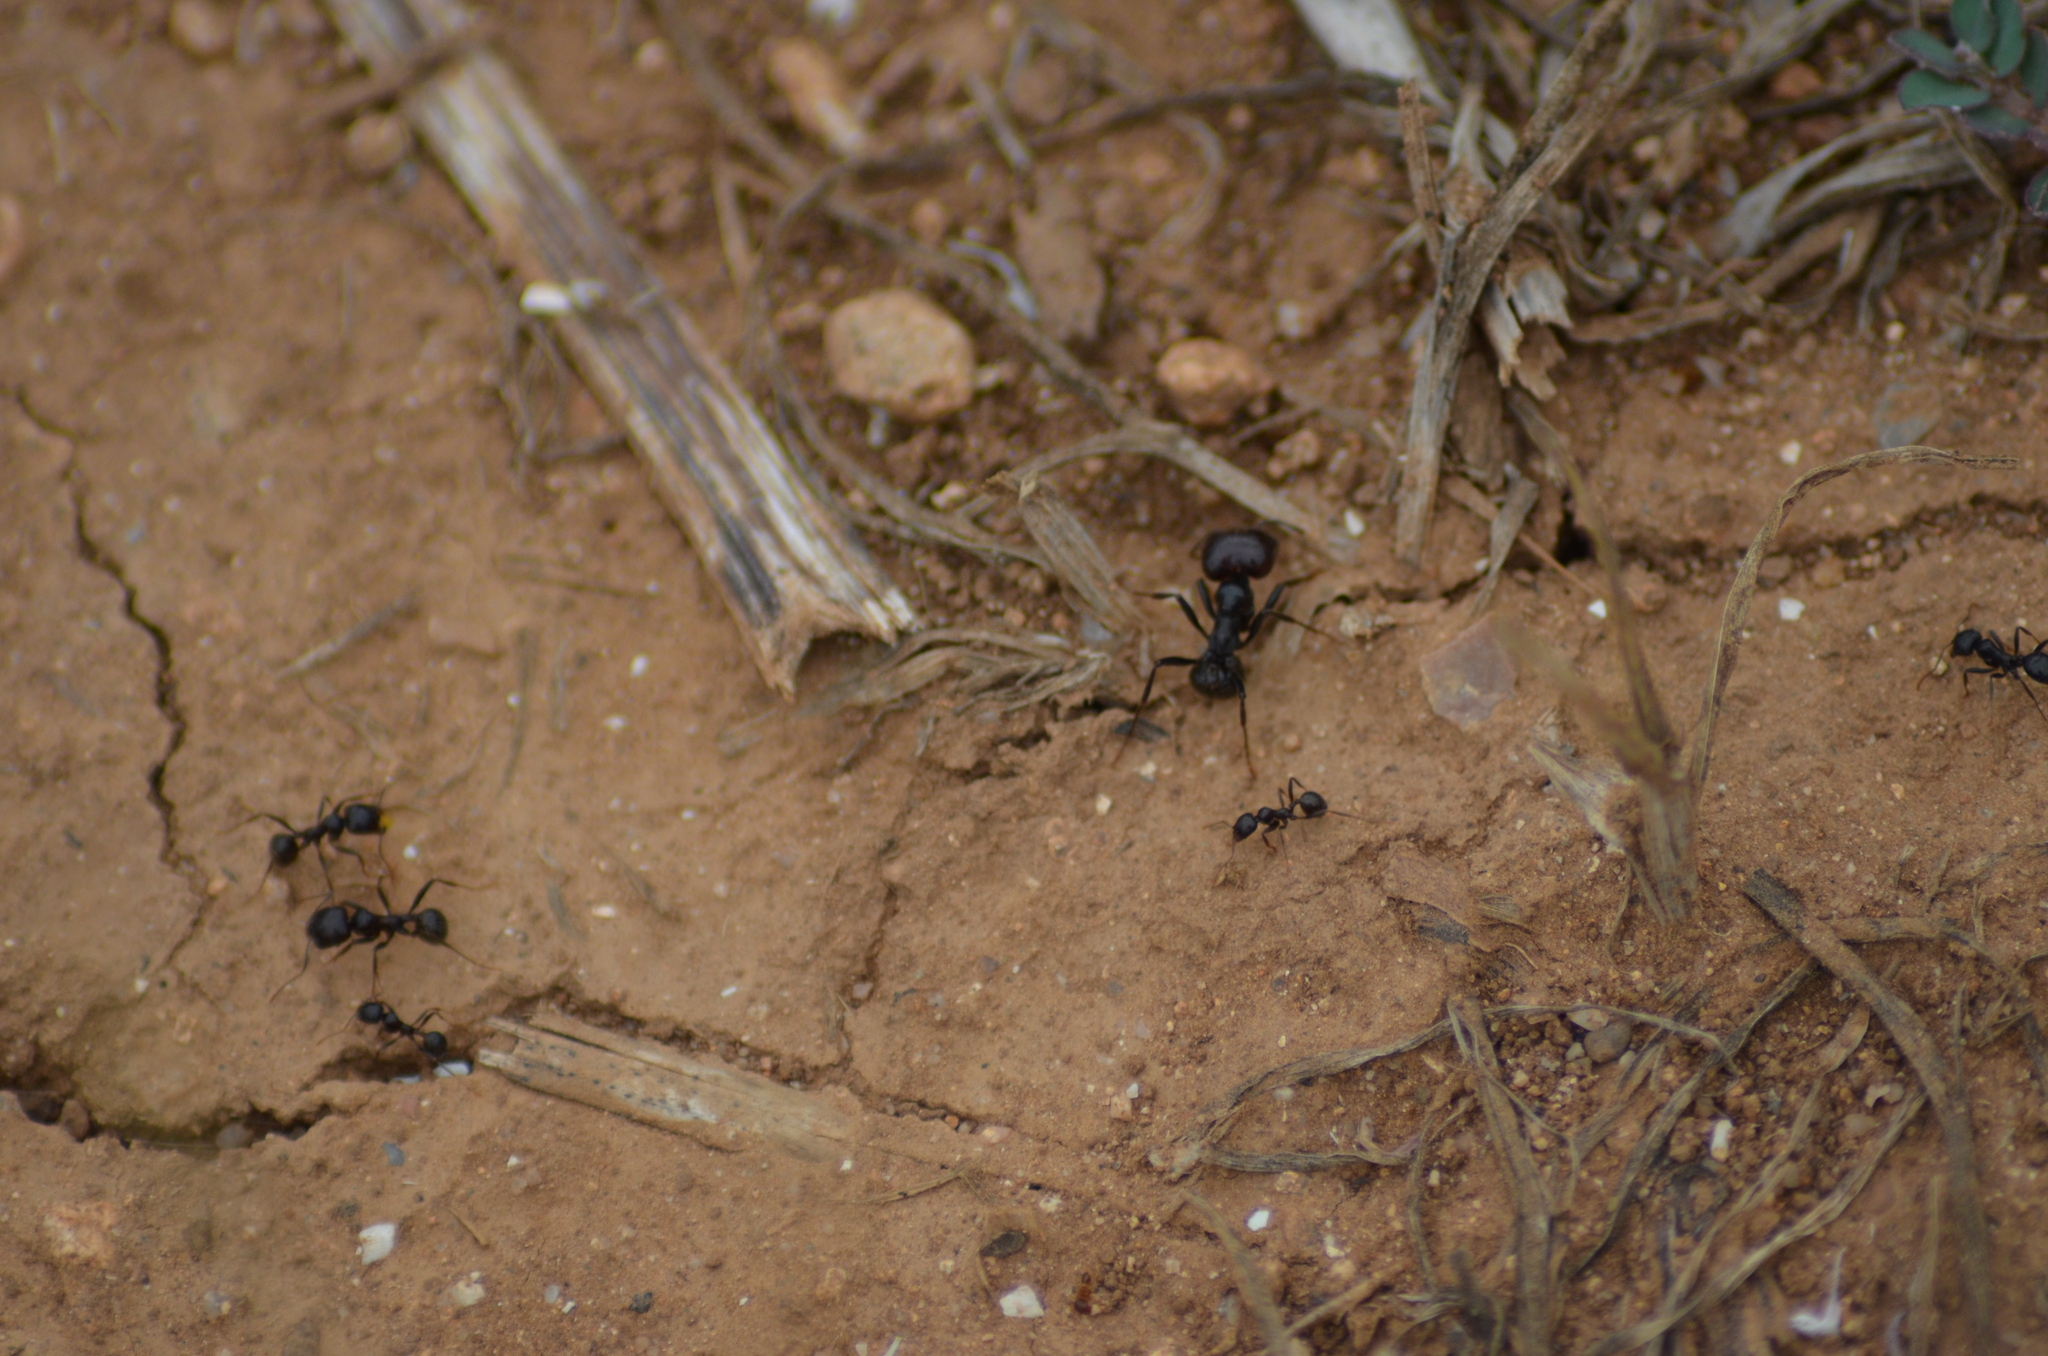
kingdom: Animalia
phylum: Arthropoda
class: Insecta
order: Hymenoptera
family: Formicidae
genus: Messor
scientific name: Messor barbarus
